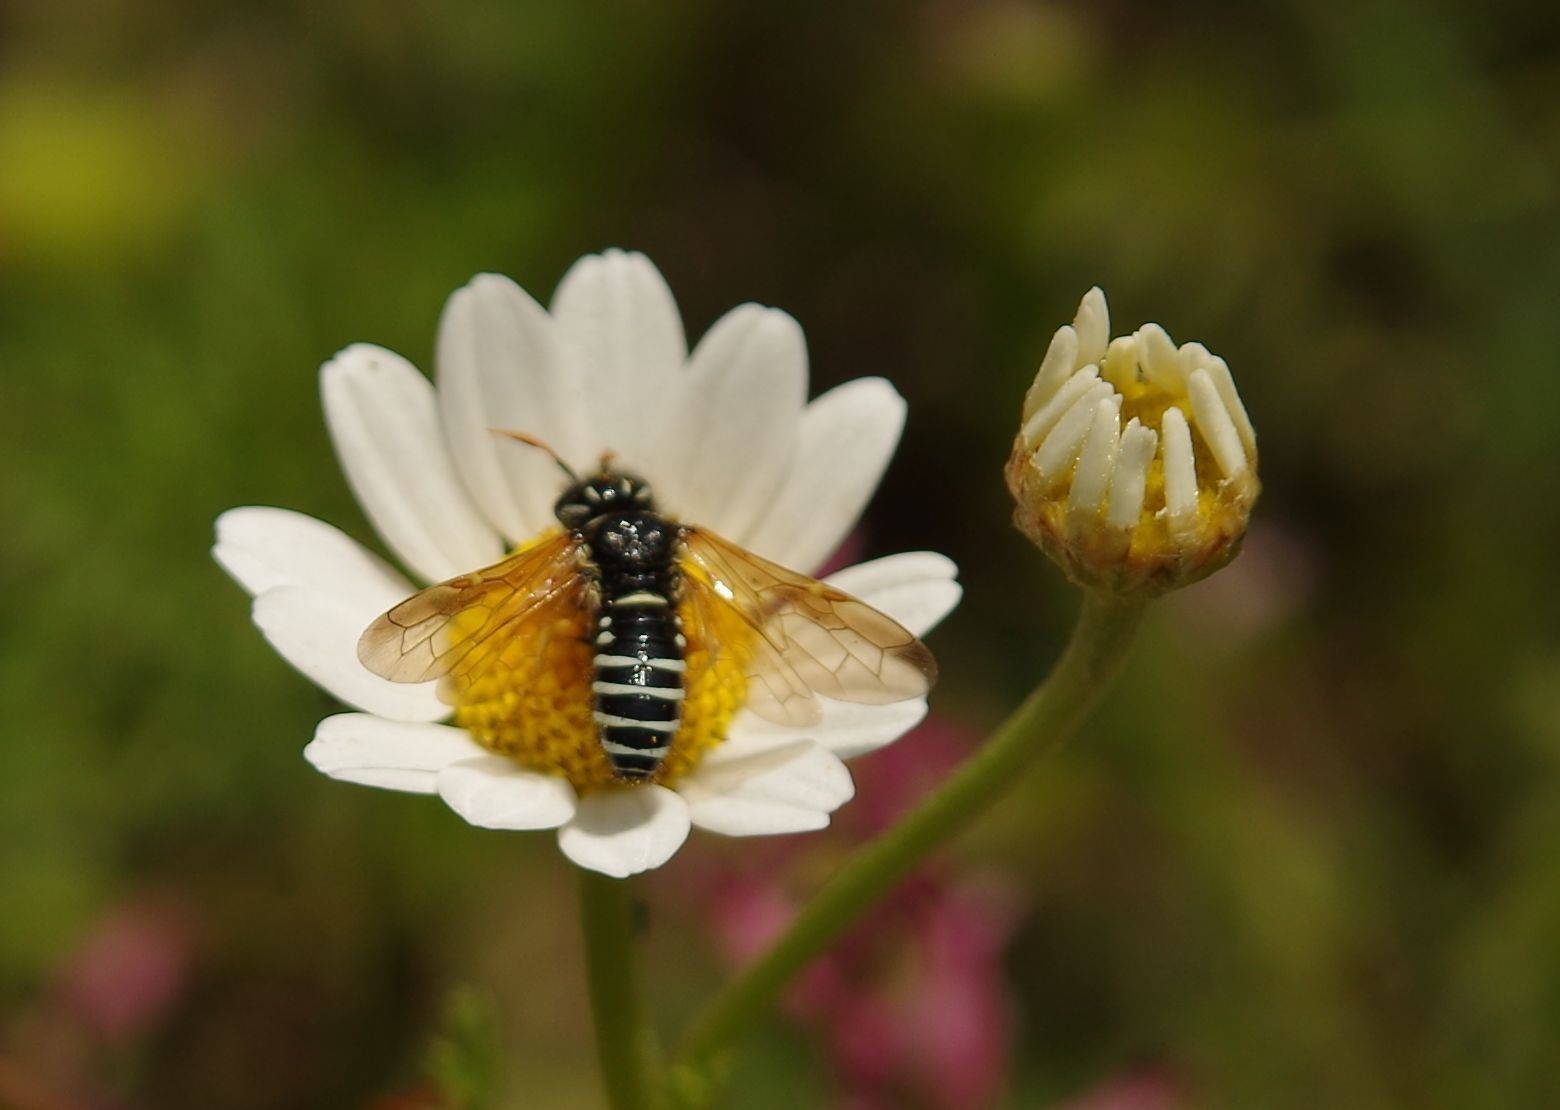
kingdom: Animalia
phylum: Arthropoda
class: Insecta
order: Hymenoptera
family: Megalodontesidae
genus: Megalodontes
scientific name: Megalodontes mocsaryi
